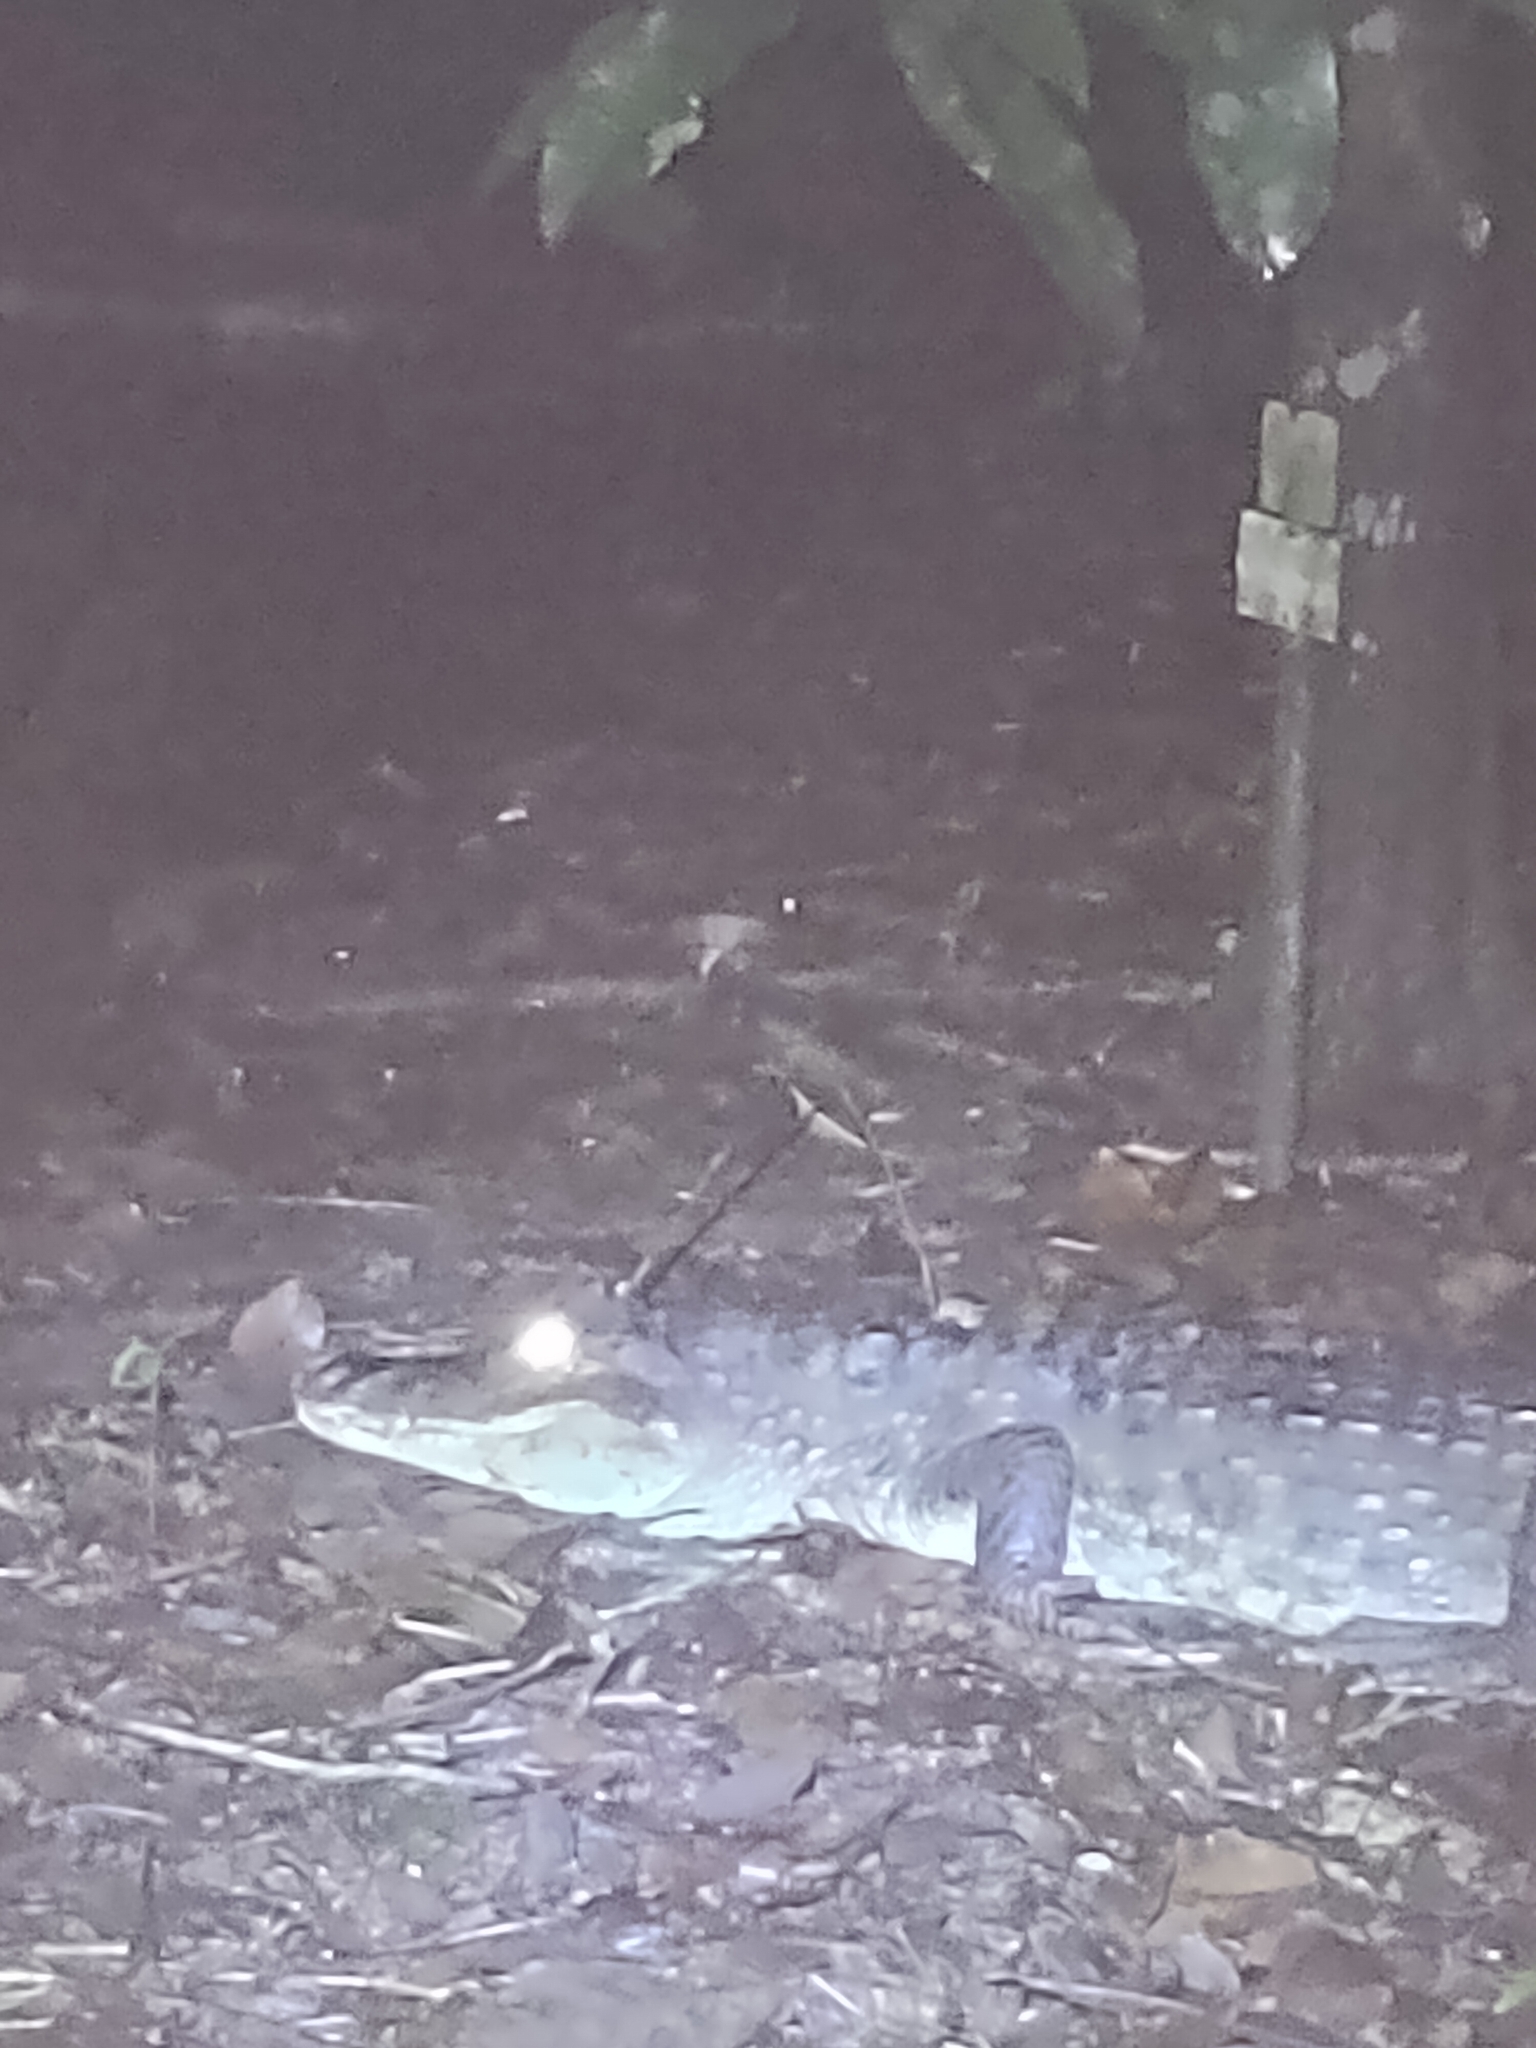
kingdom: Animalia
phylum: Chordata
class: Crocodylia
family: Alligatoridae
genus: Caiman
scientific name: Caiman crocodilus
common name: Common caiman
